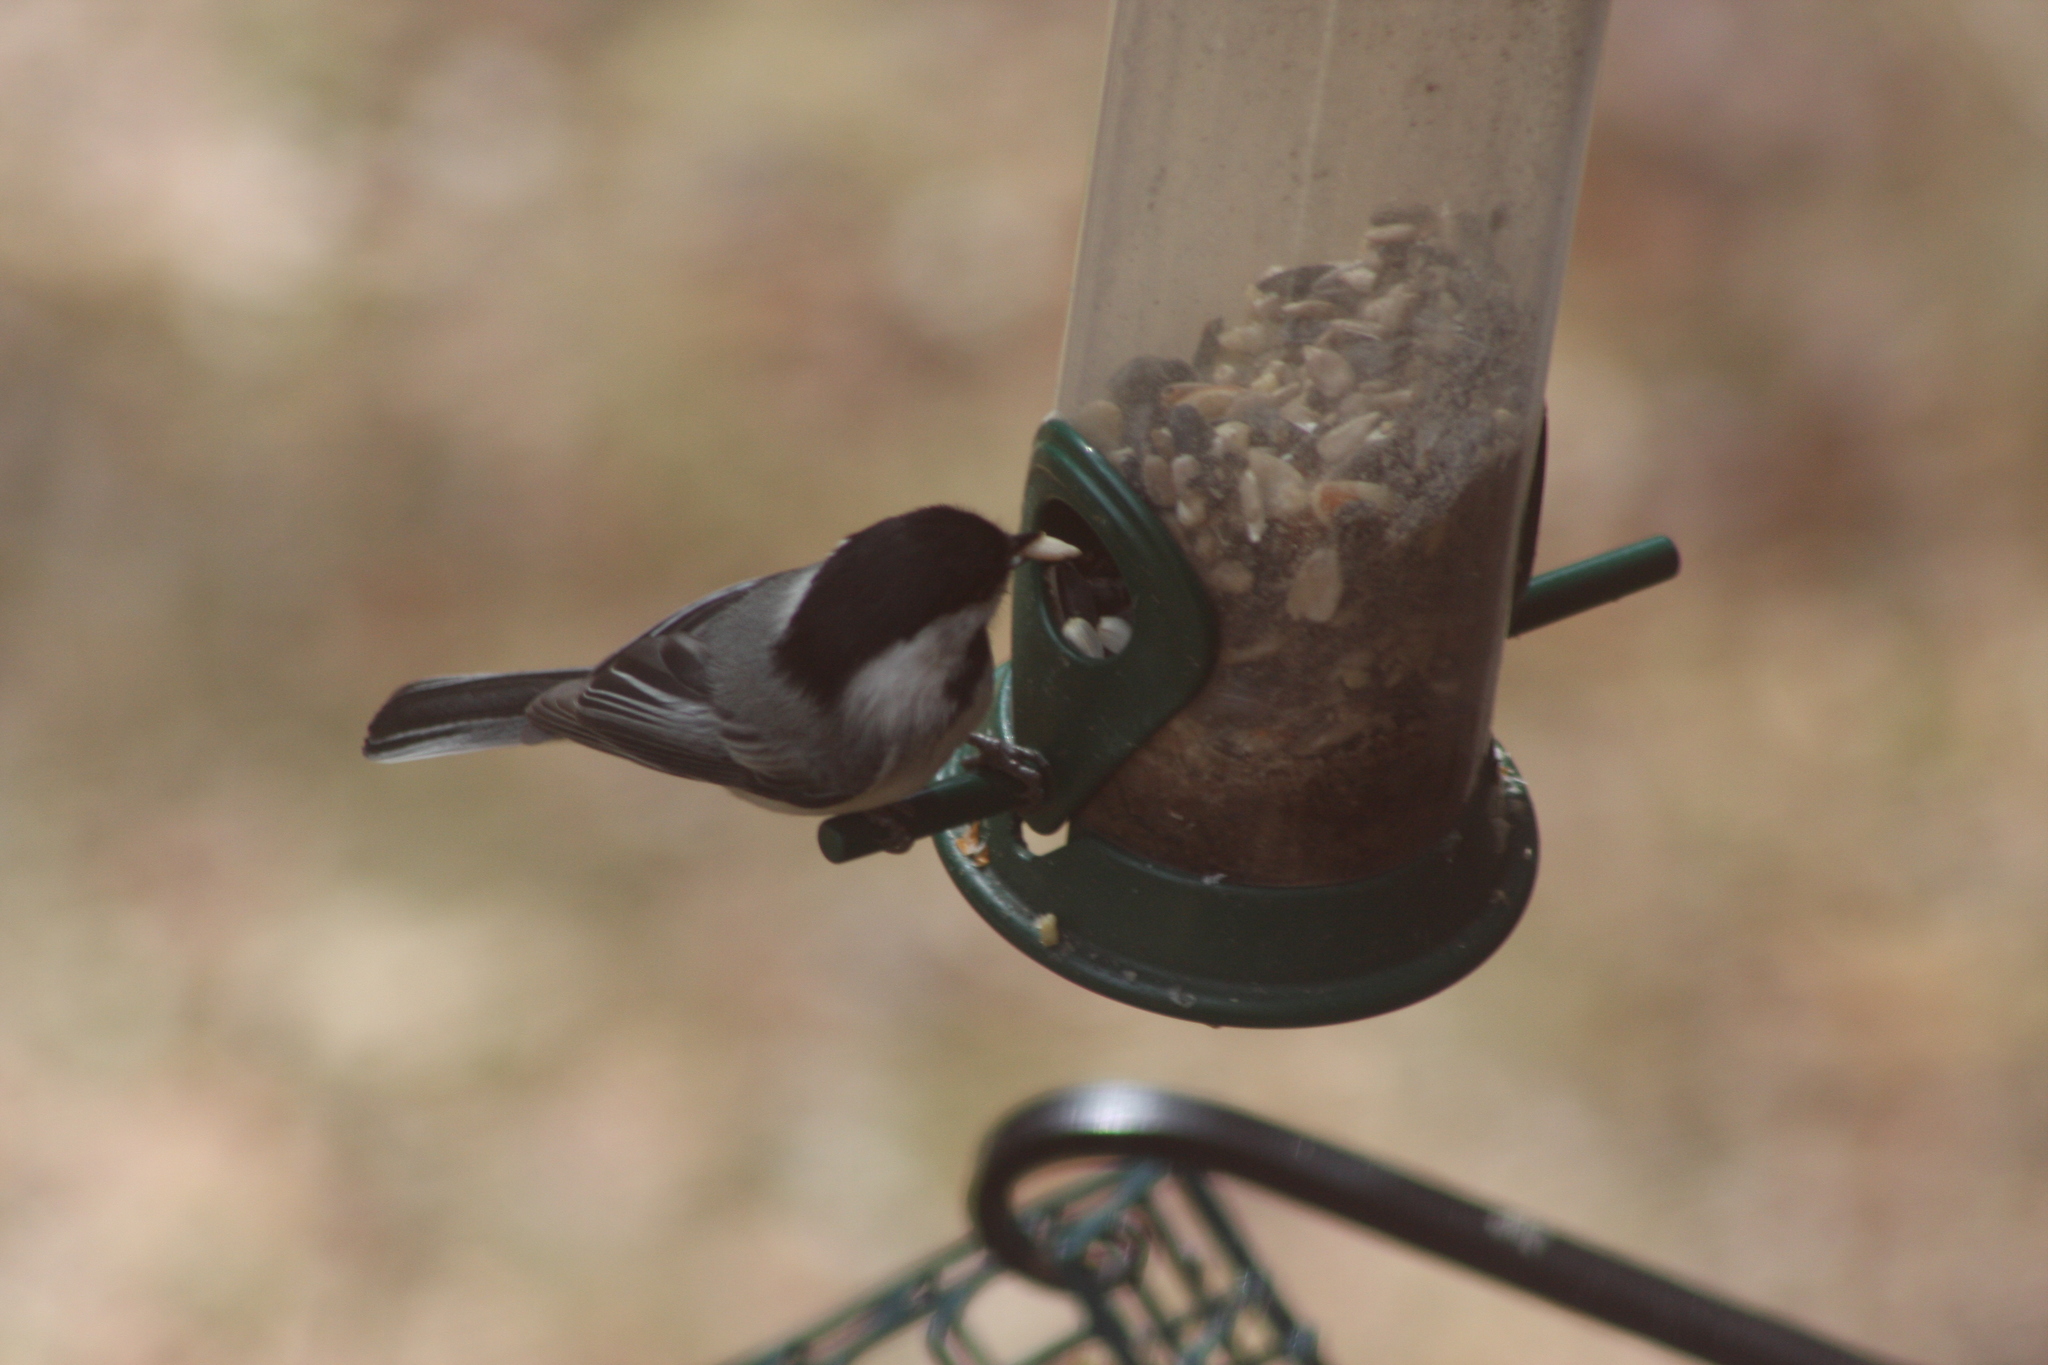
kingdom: Animalia
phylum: Chordata
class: Aves
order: Passeriformes
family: Paridae
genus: Poecile
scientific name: Poecile atricapillus
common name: Black-capped chickadee
